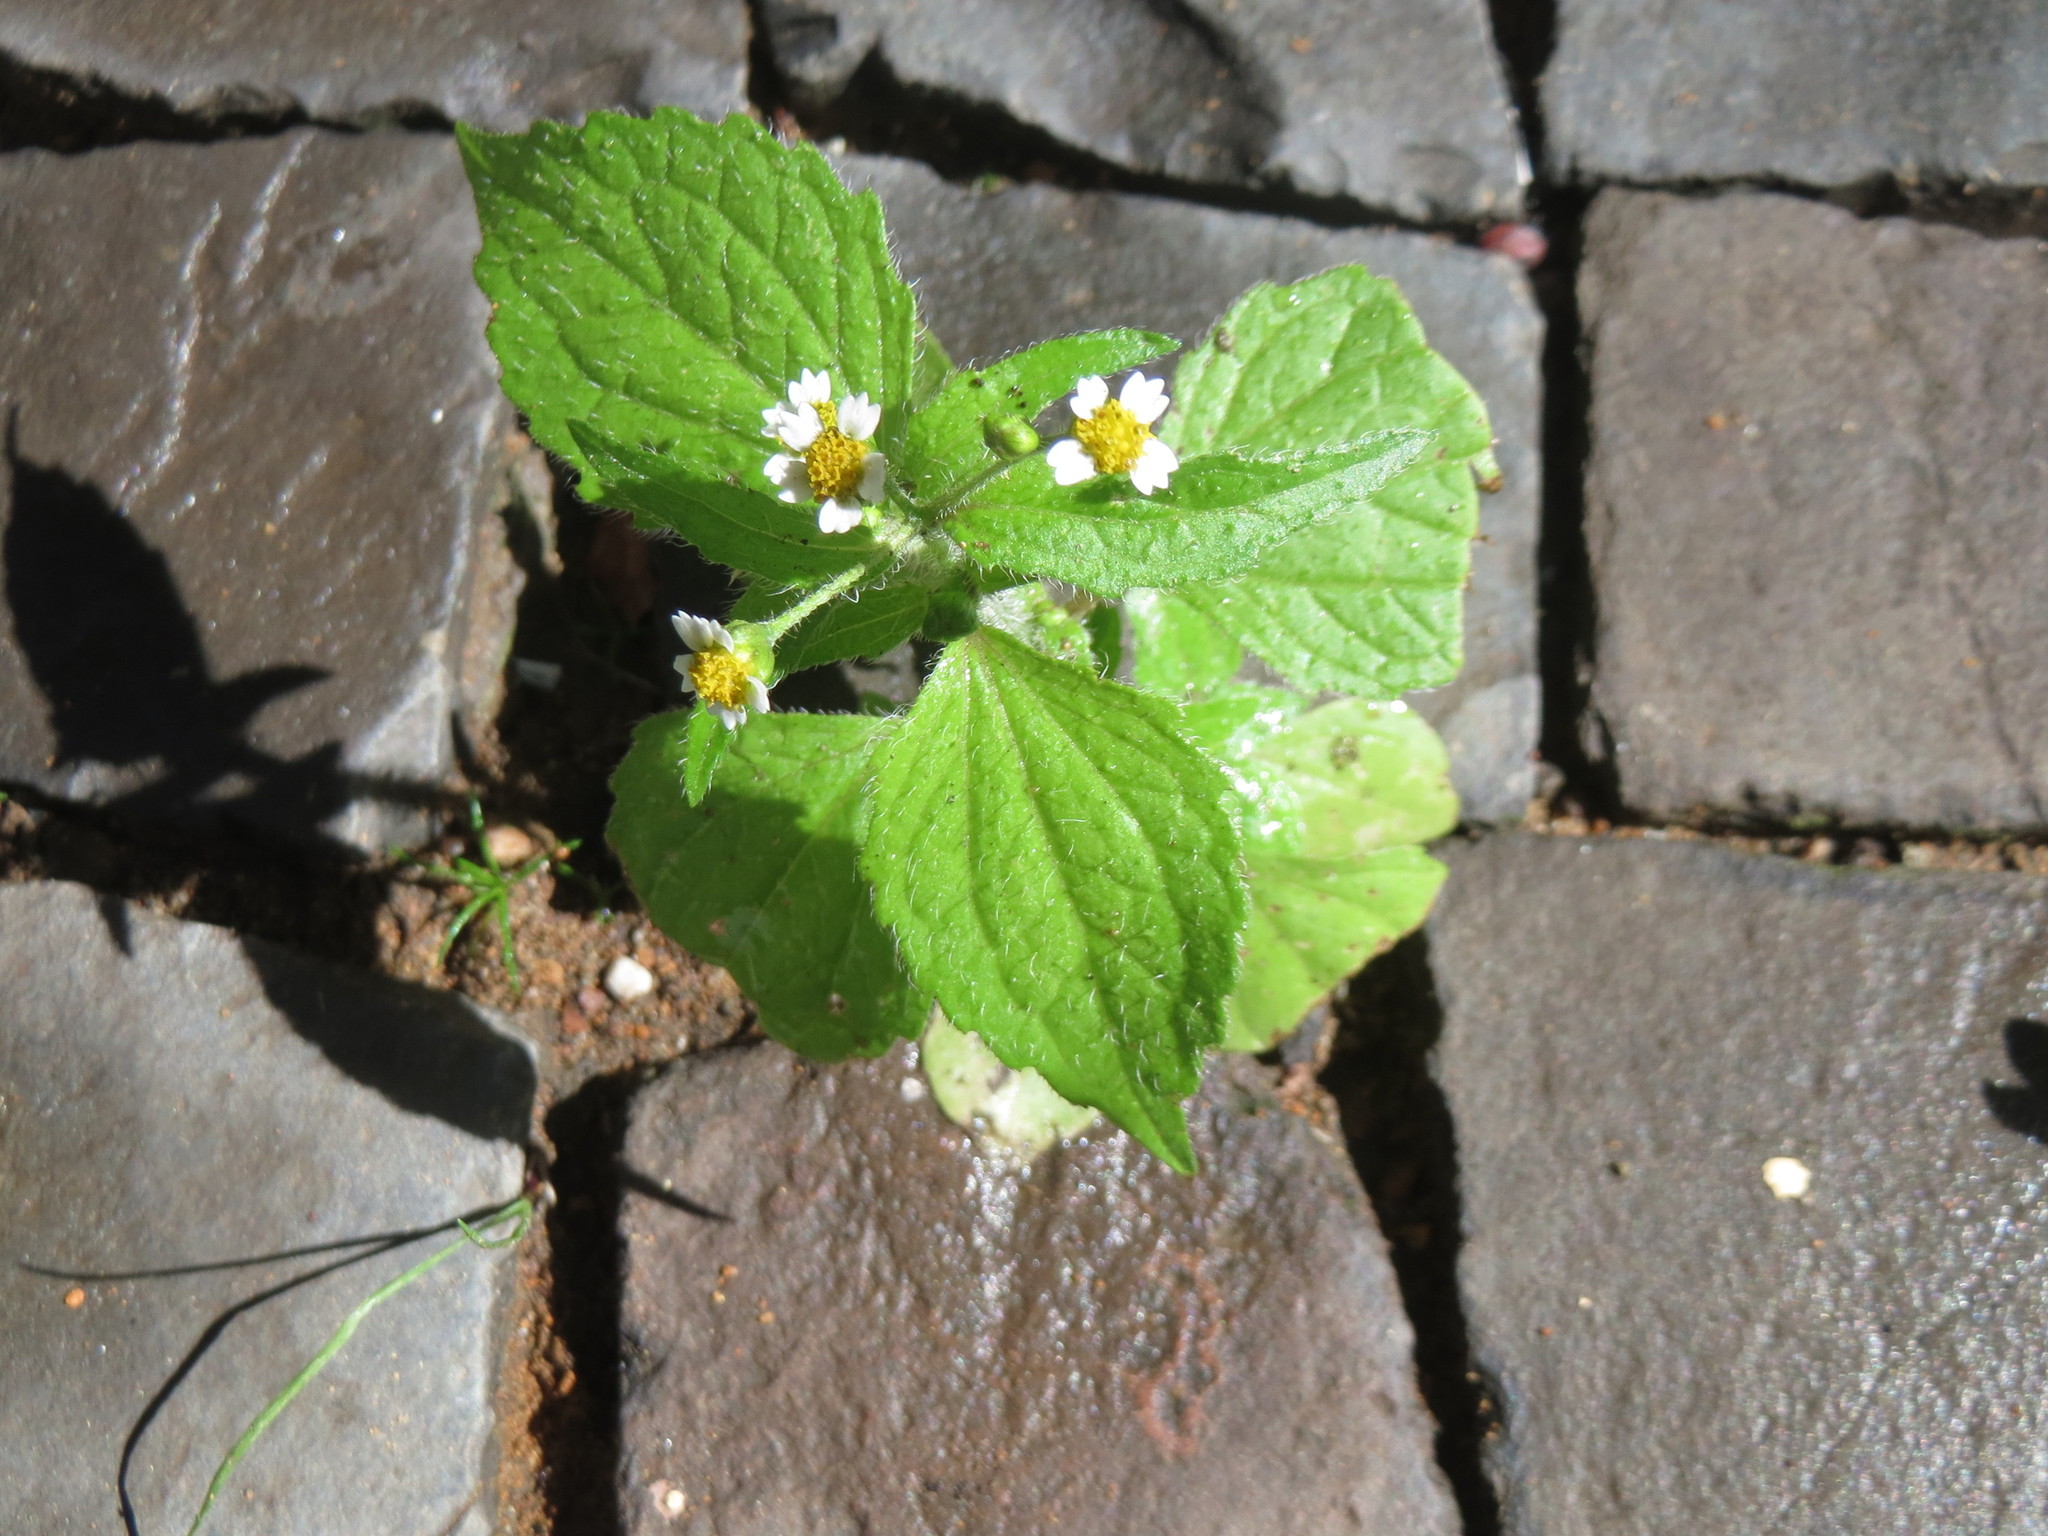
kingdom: Plantae
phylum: Tracheophyta
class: Magnoliopsida
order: Asterales
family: Asteraceae
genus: Galinsoga
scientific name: Galinsoga parviflora
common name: Gallant soldier
